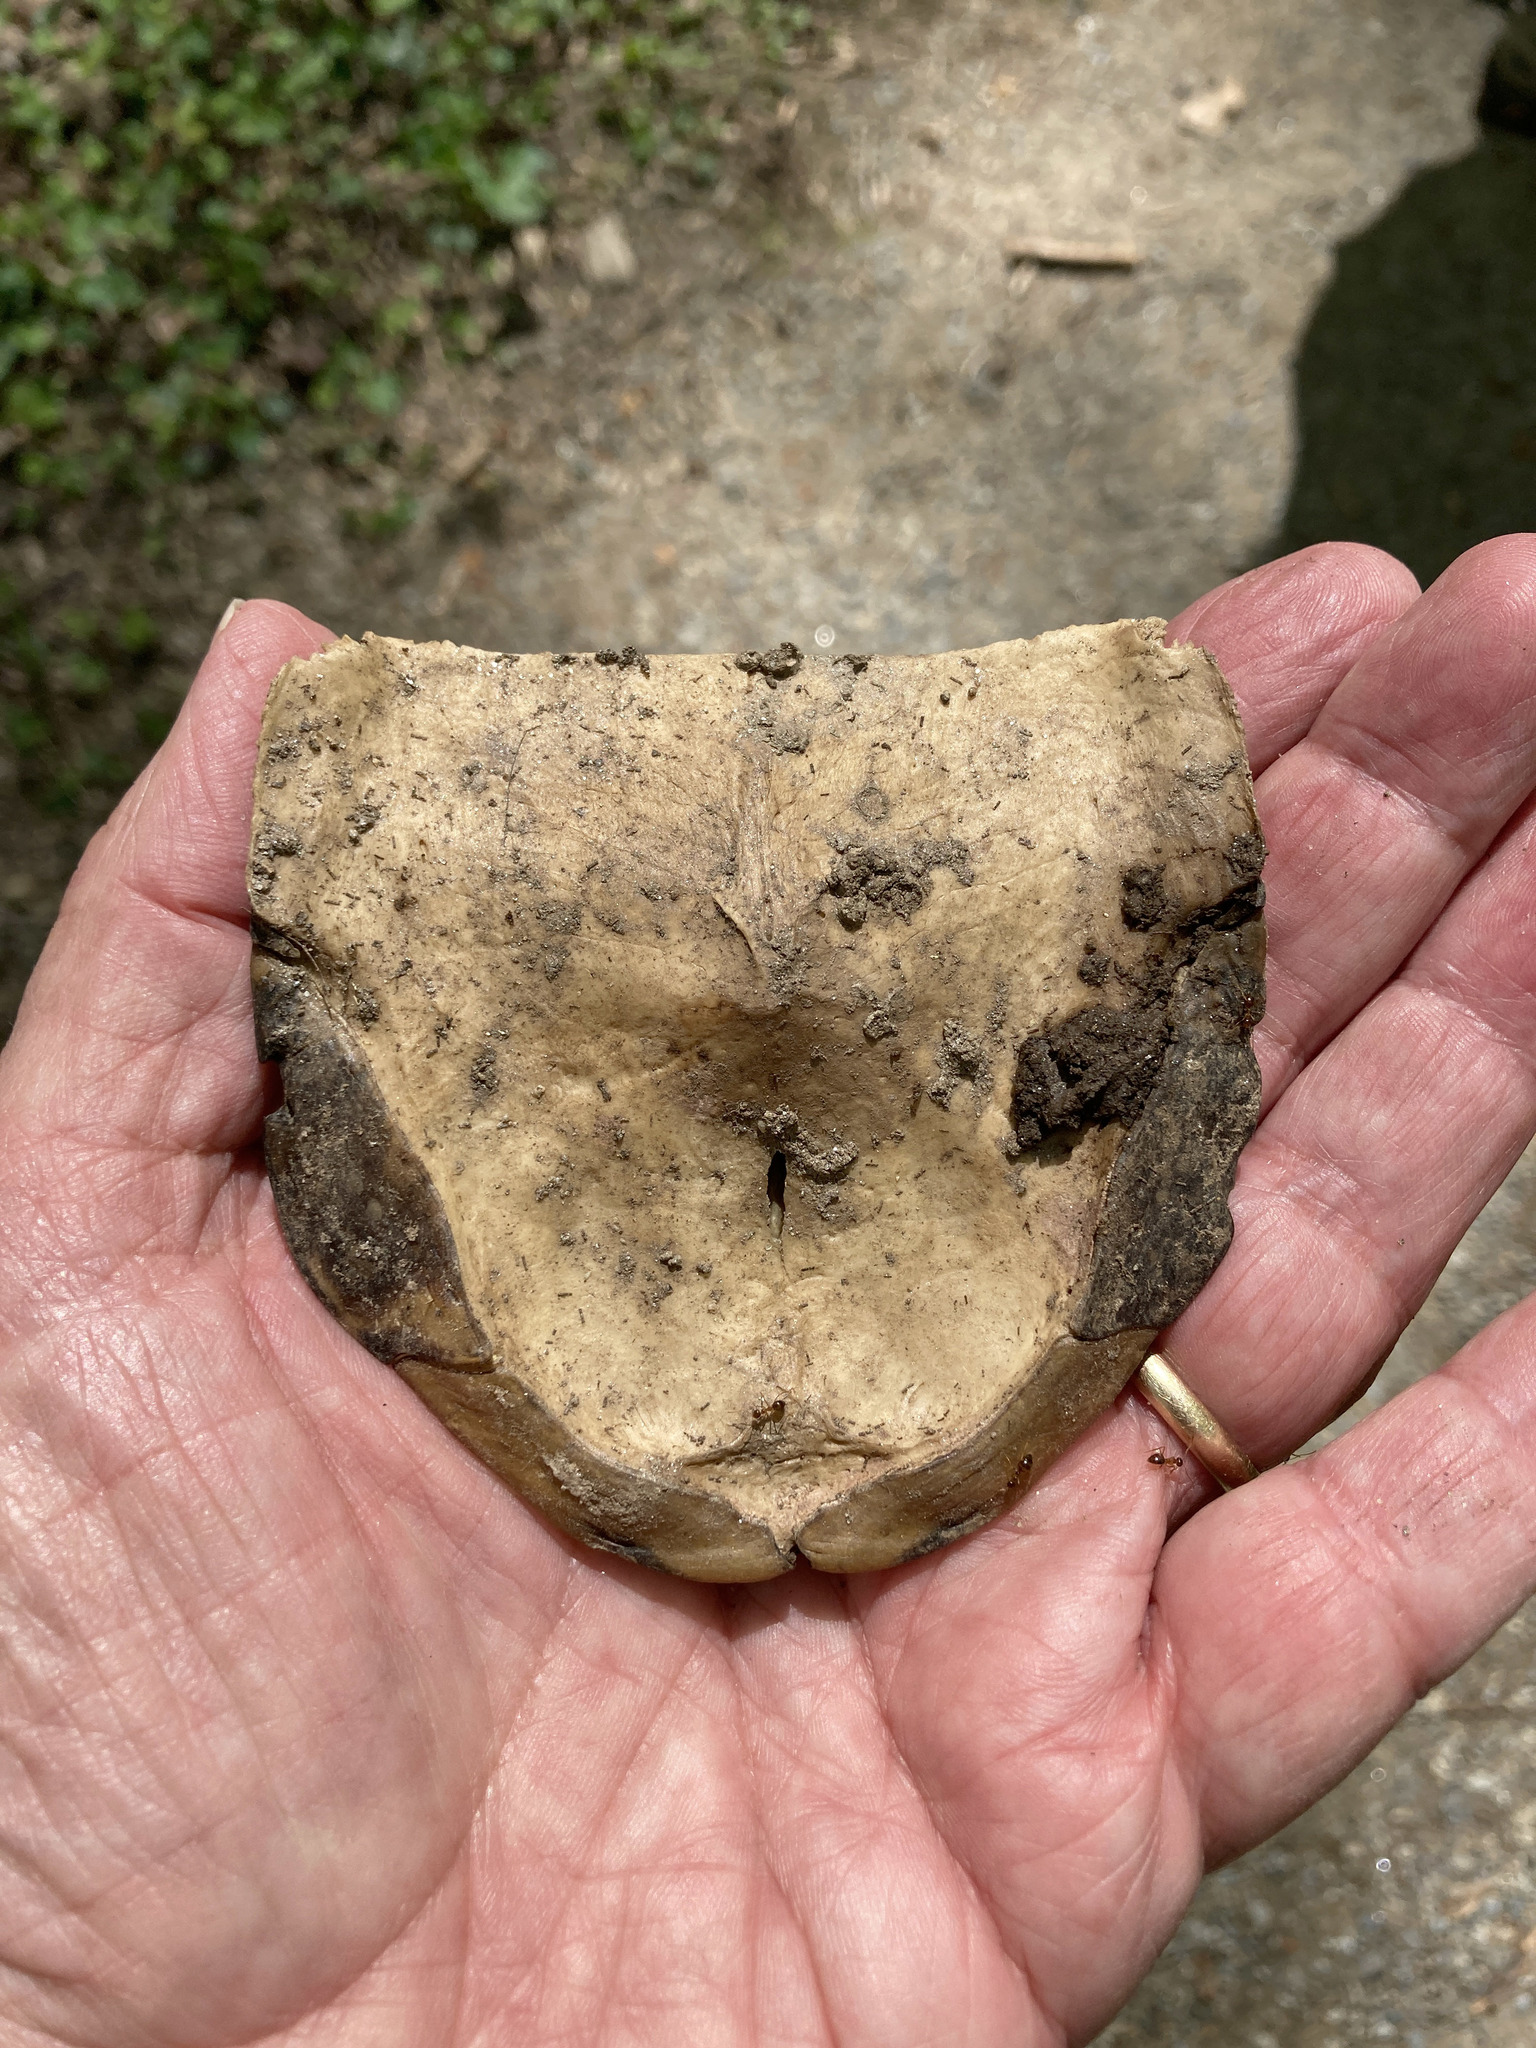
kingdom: Animalia
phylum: Chordata
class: Testudines
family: Emydidae
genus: Terrapene
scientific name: Terrapene carolina
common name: Common box turtle
